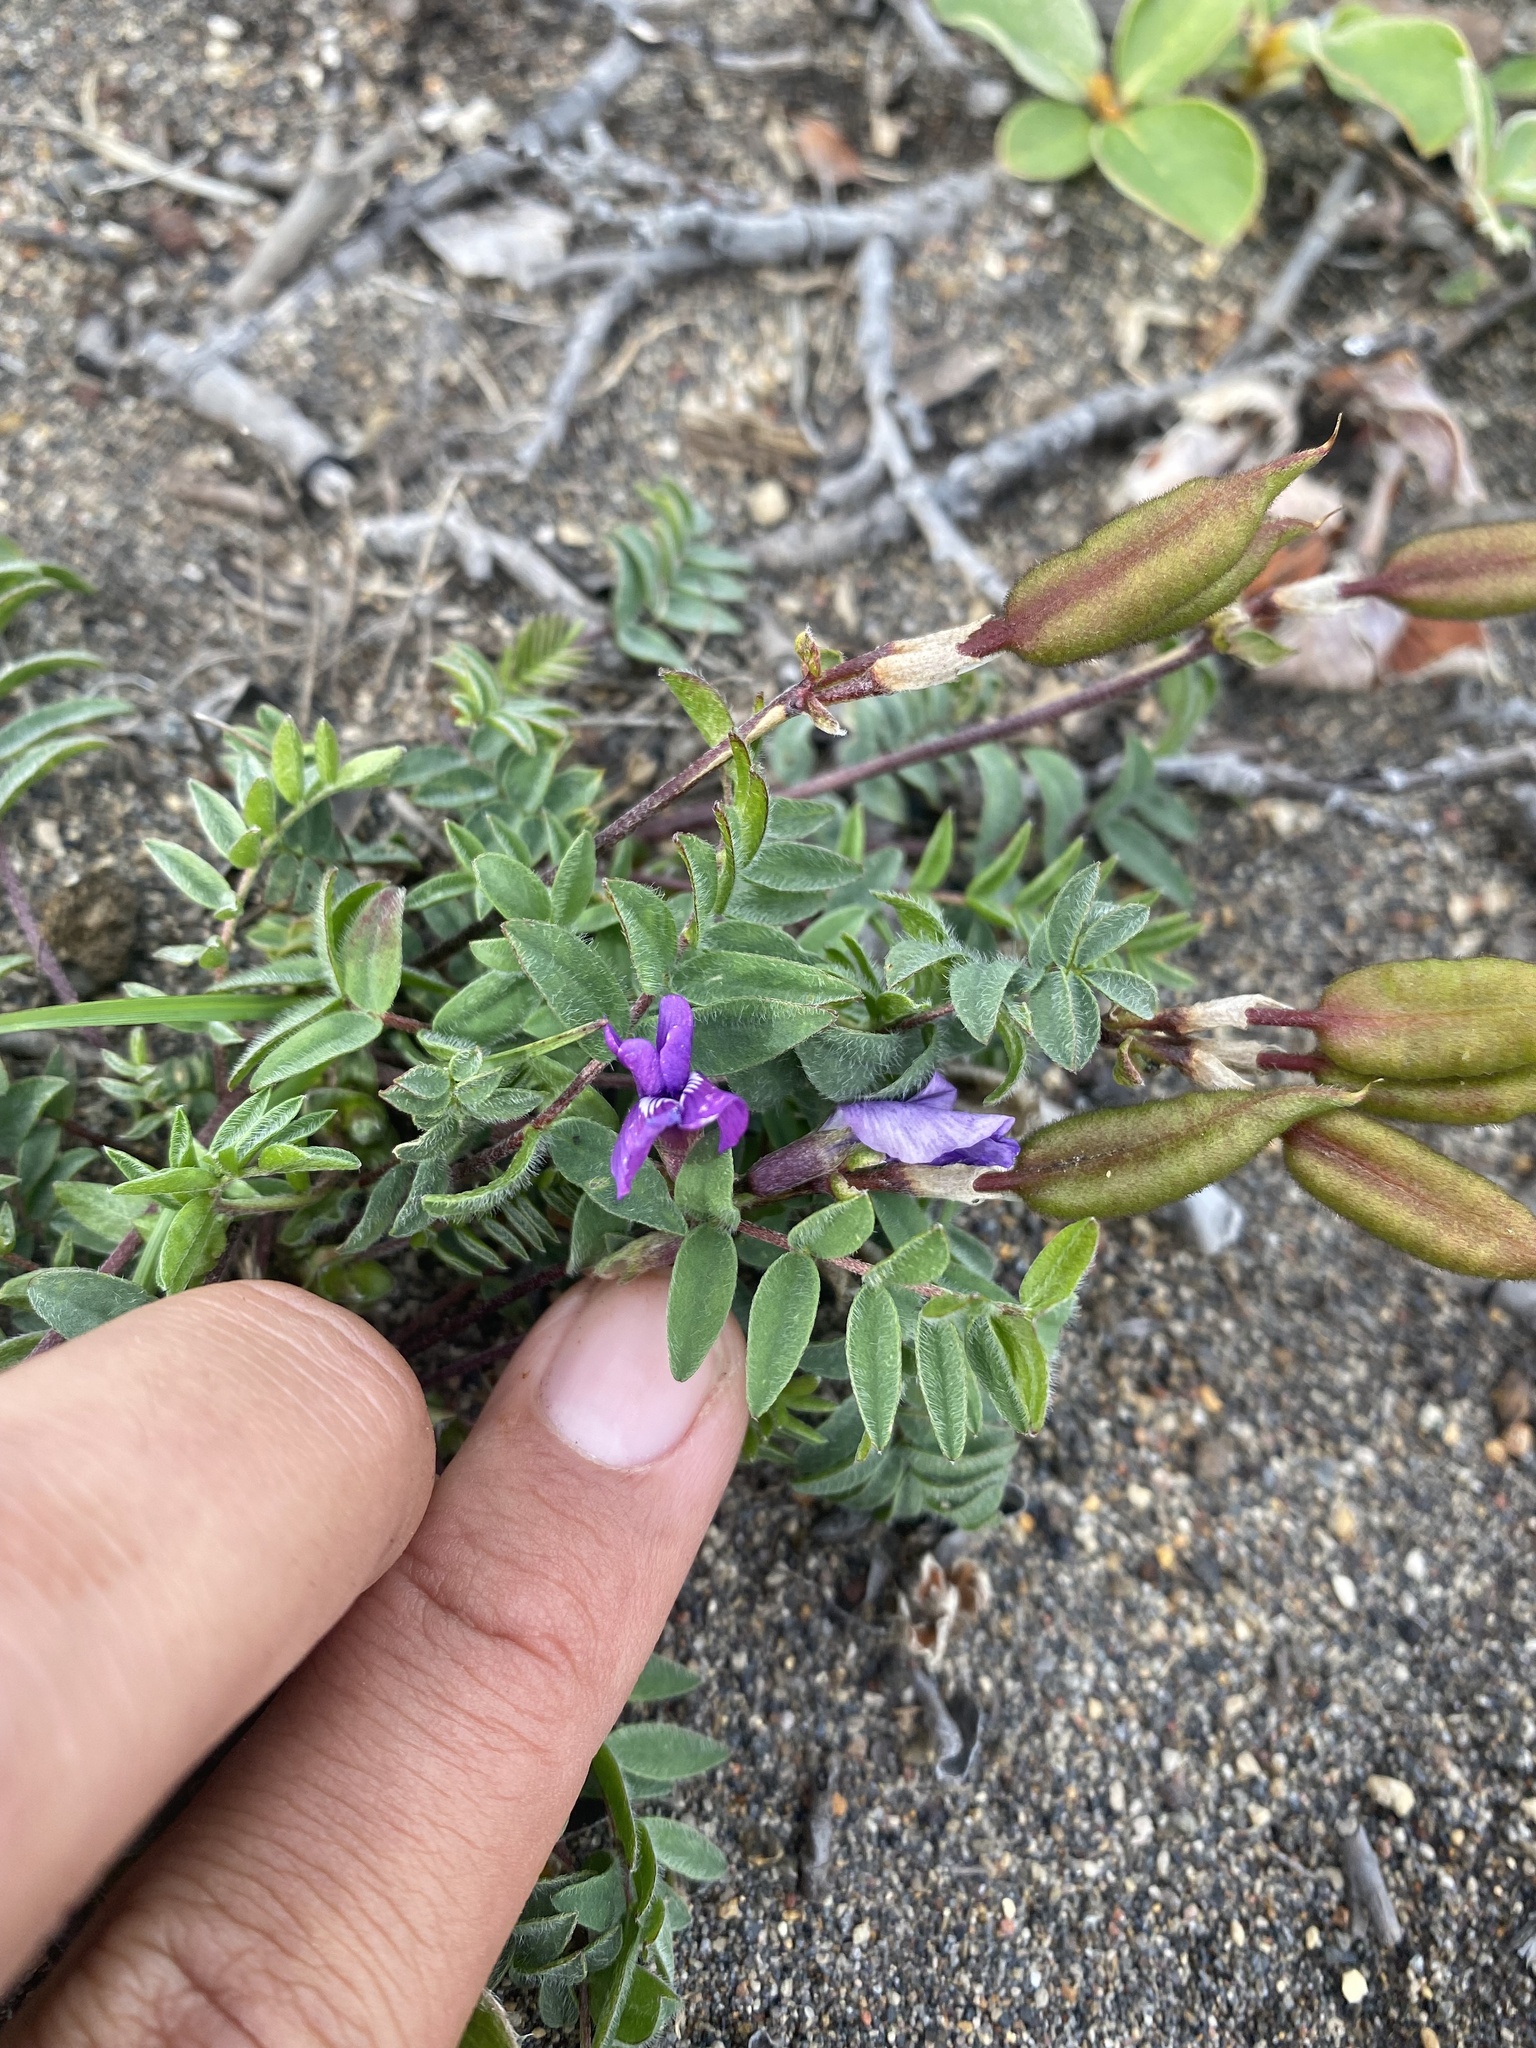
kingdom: Plantae
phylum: Tracheophyta
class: Magnoliopsida
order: Fabales
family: Fabaceae
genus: Oxytropis
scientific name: Oxytropis czukotica
